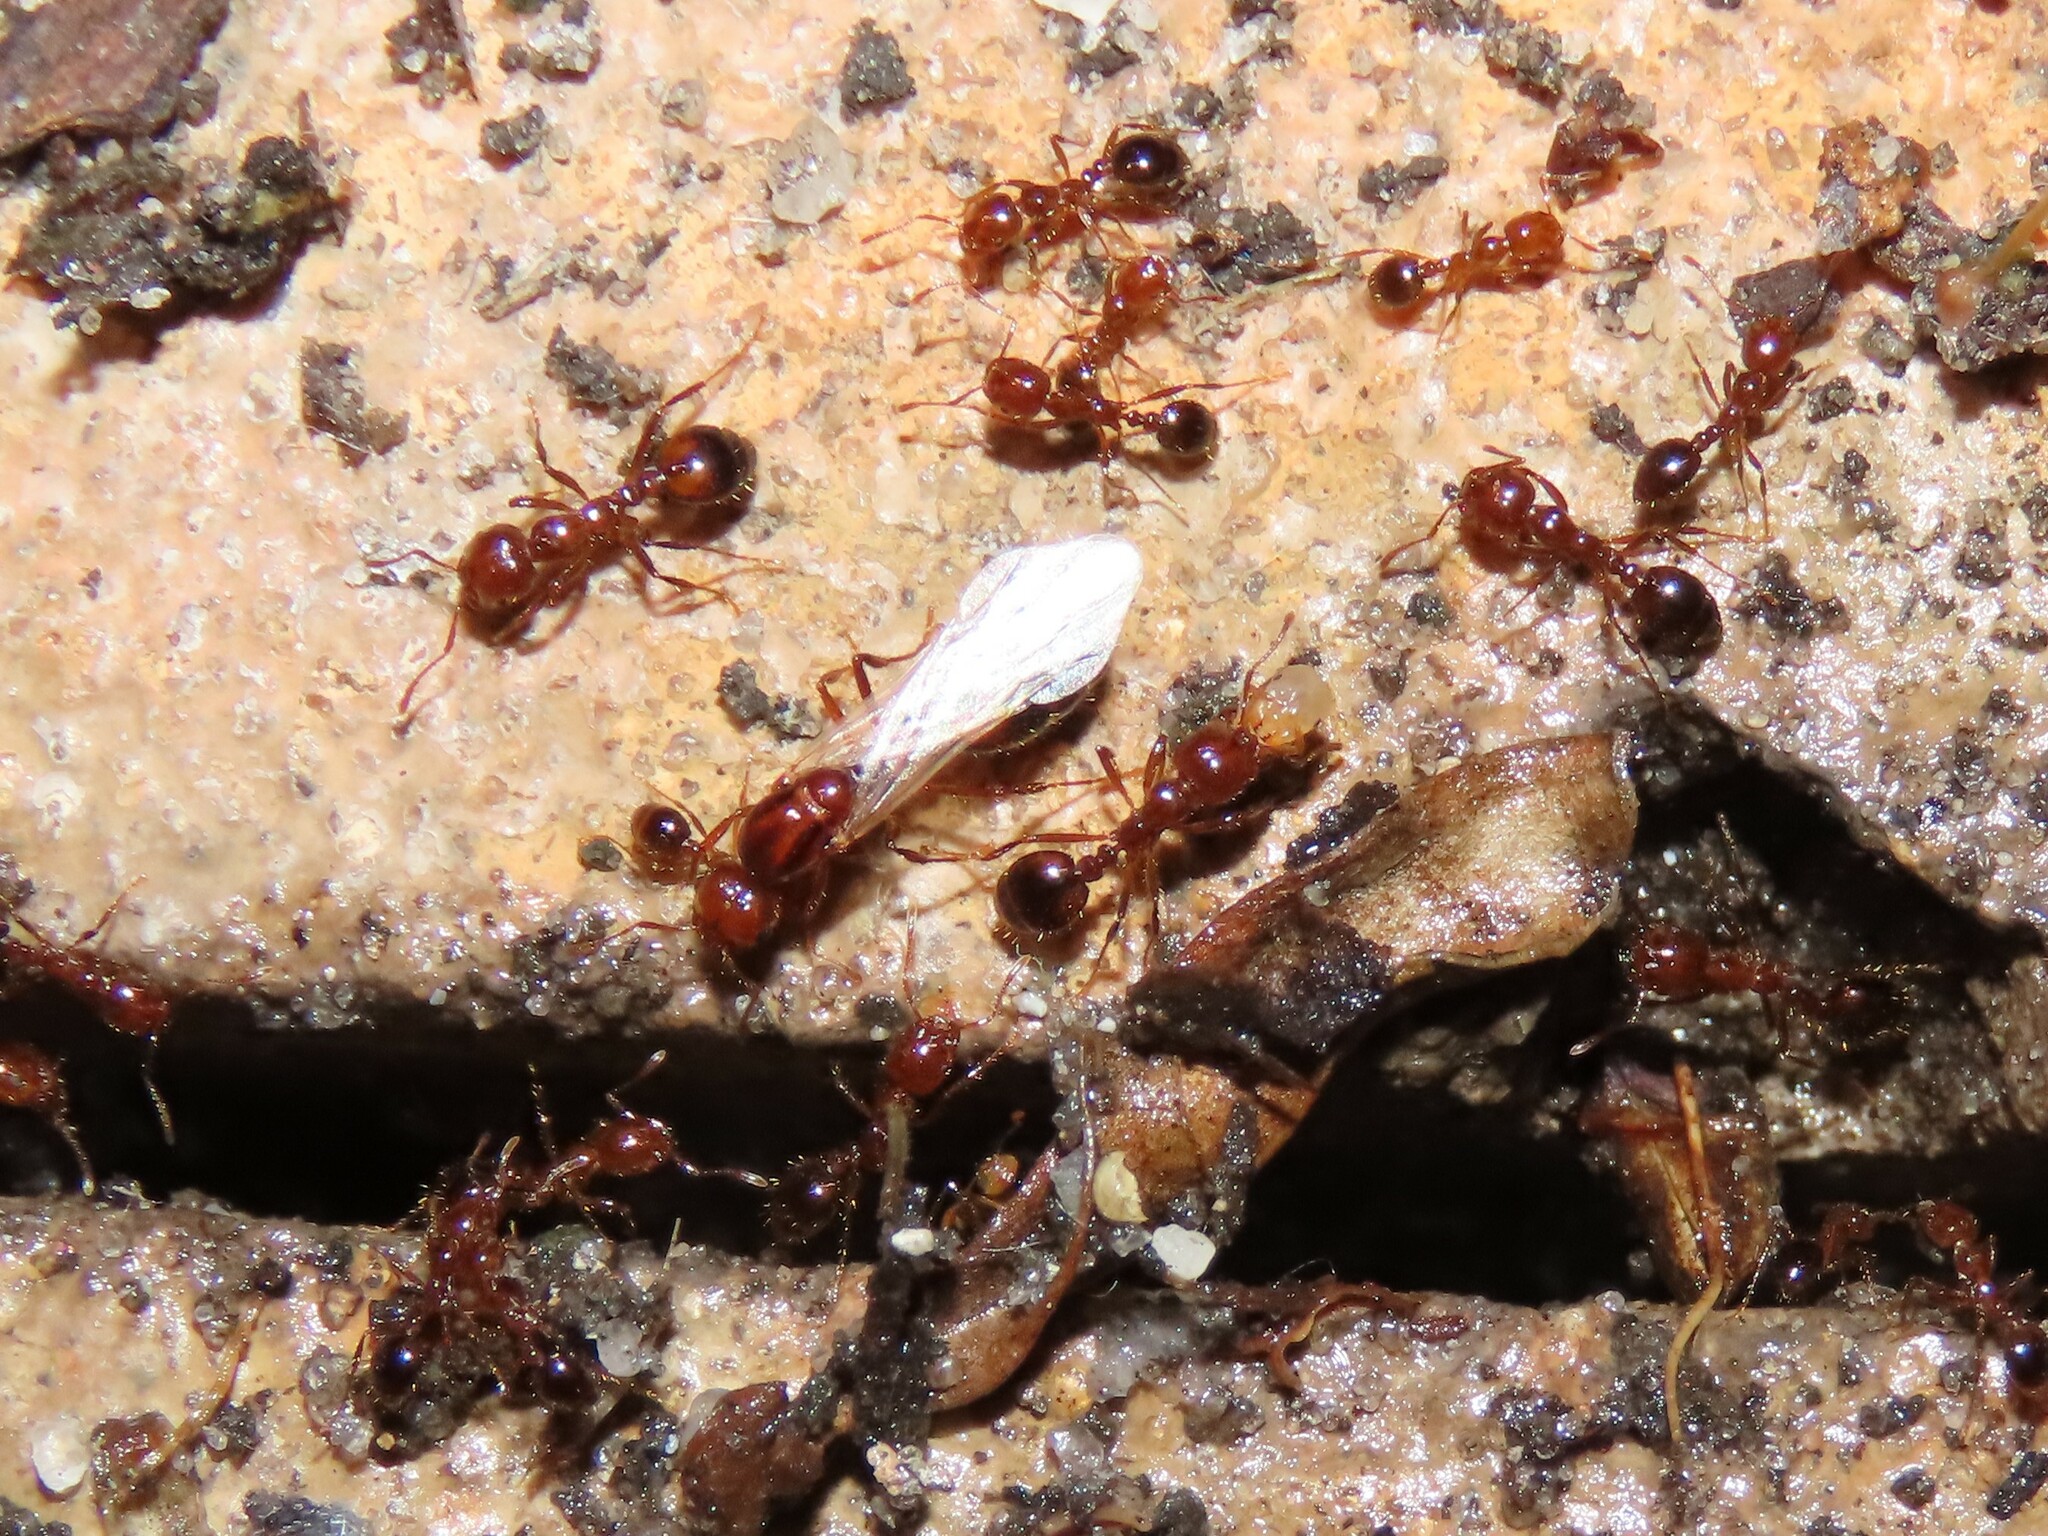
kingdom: Animalia
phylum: Arthropoda
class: Insecta
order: Hymenoptera
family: Formicidae
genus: Solenopsis
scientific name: Solenopsis invicta
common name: Red imported fire ant
